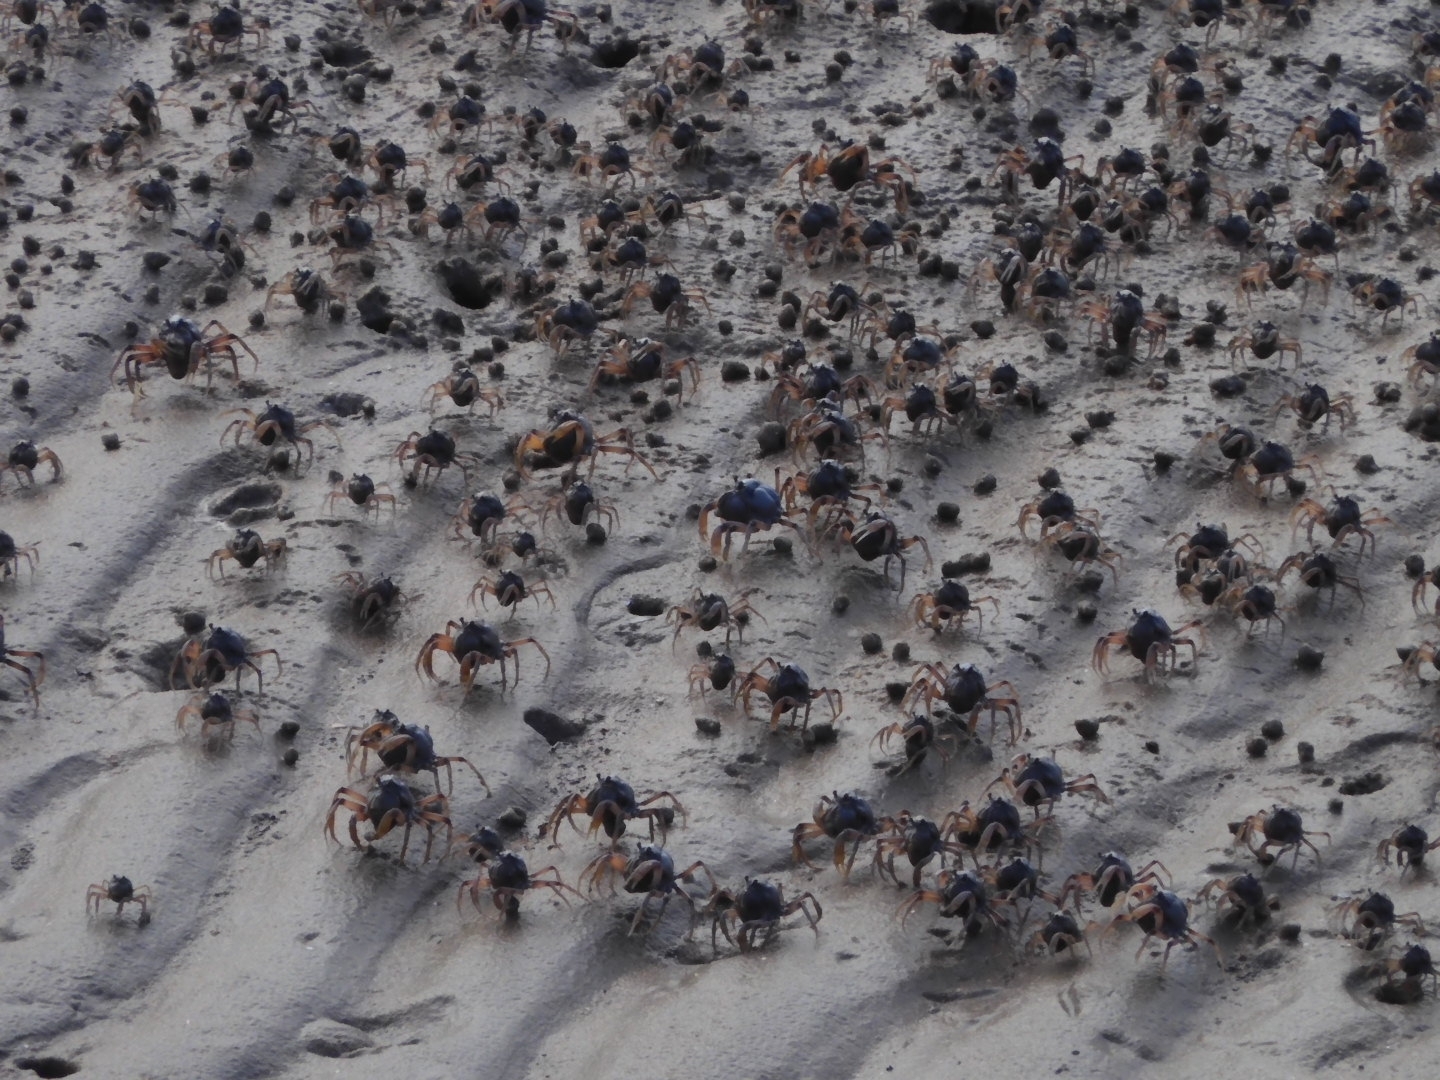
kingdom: Animalia
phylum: Arthropoda
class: Malacostraca
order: Decapoda
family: Mictyridae
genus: Mictyris
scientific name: Mictyris longicarpus
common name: Light-blue soldier crab
